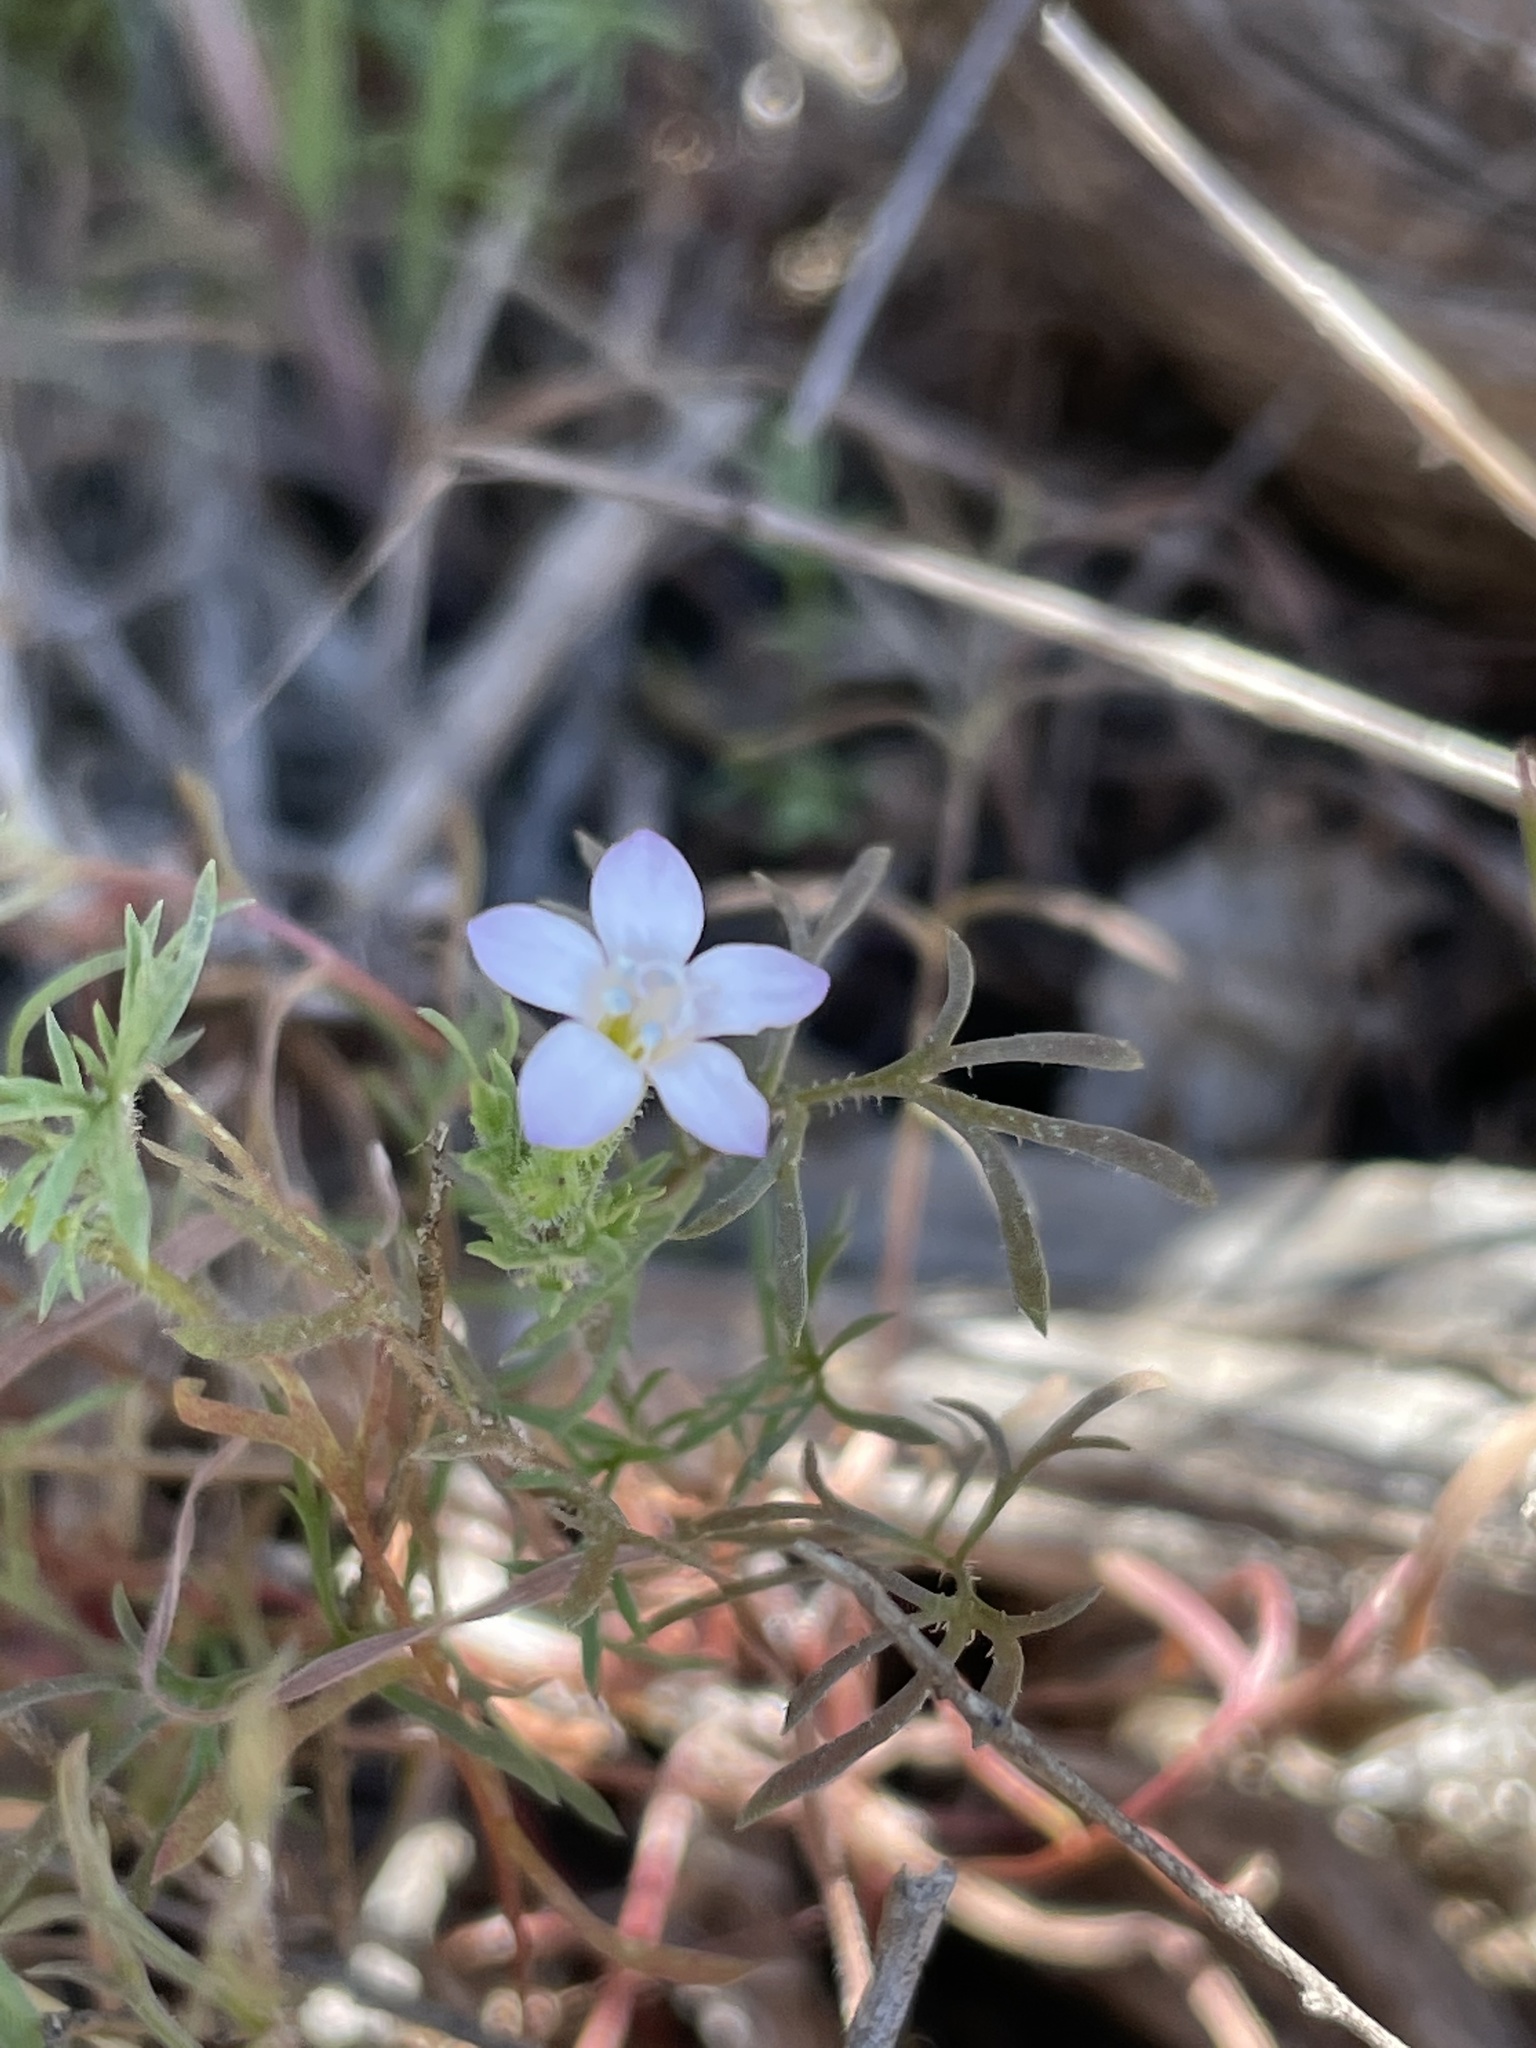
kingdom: Plantae
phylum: Tracheophyta
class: Magnoliopsida
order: Ericales
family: Polemoniaceae
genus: Gilia
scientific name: Gilia angelensis
